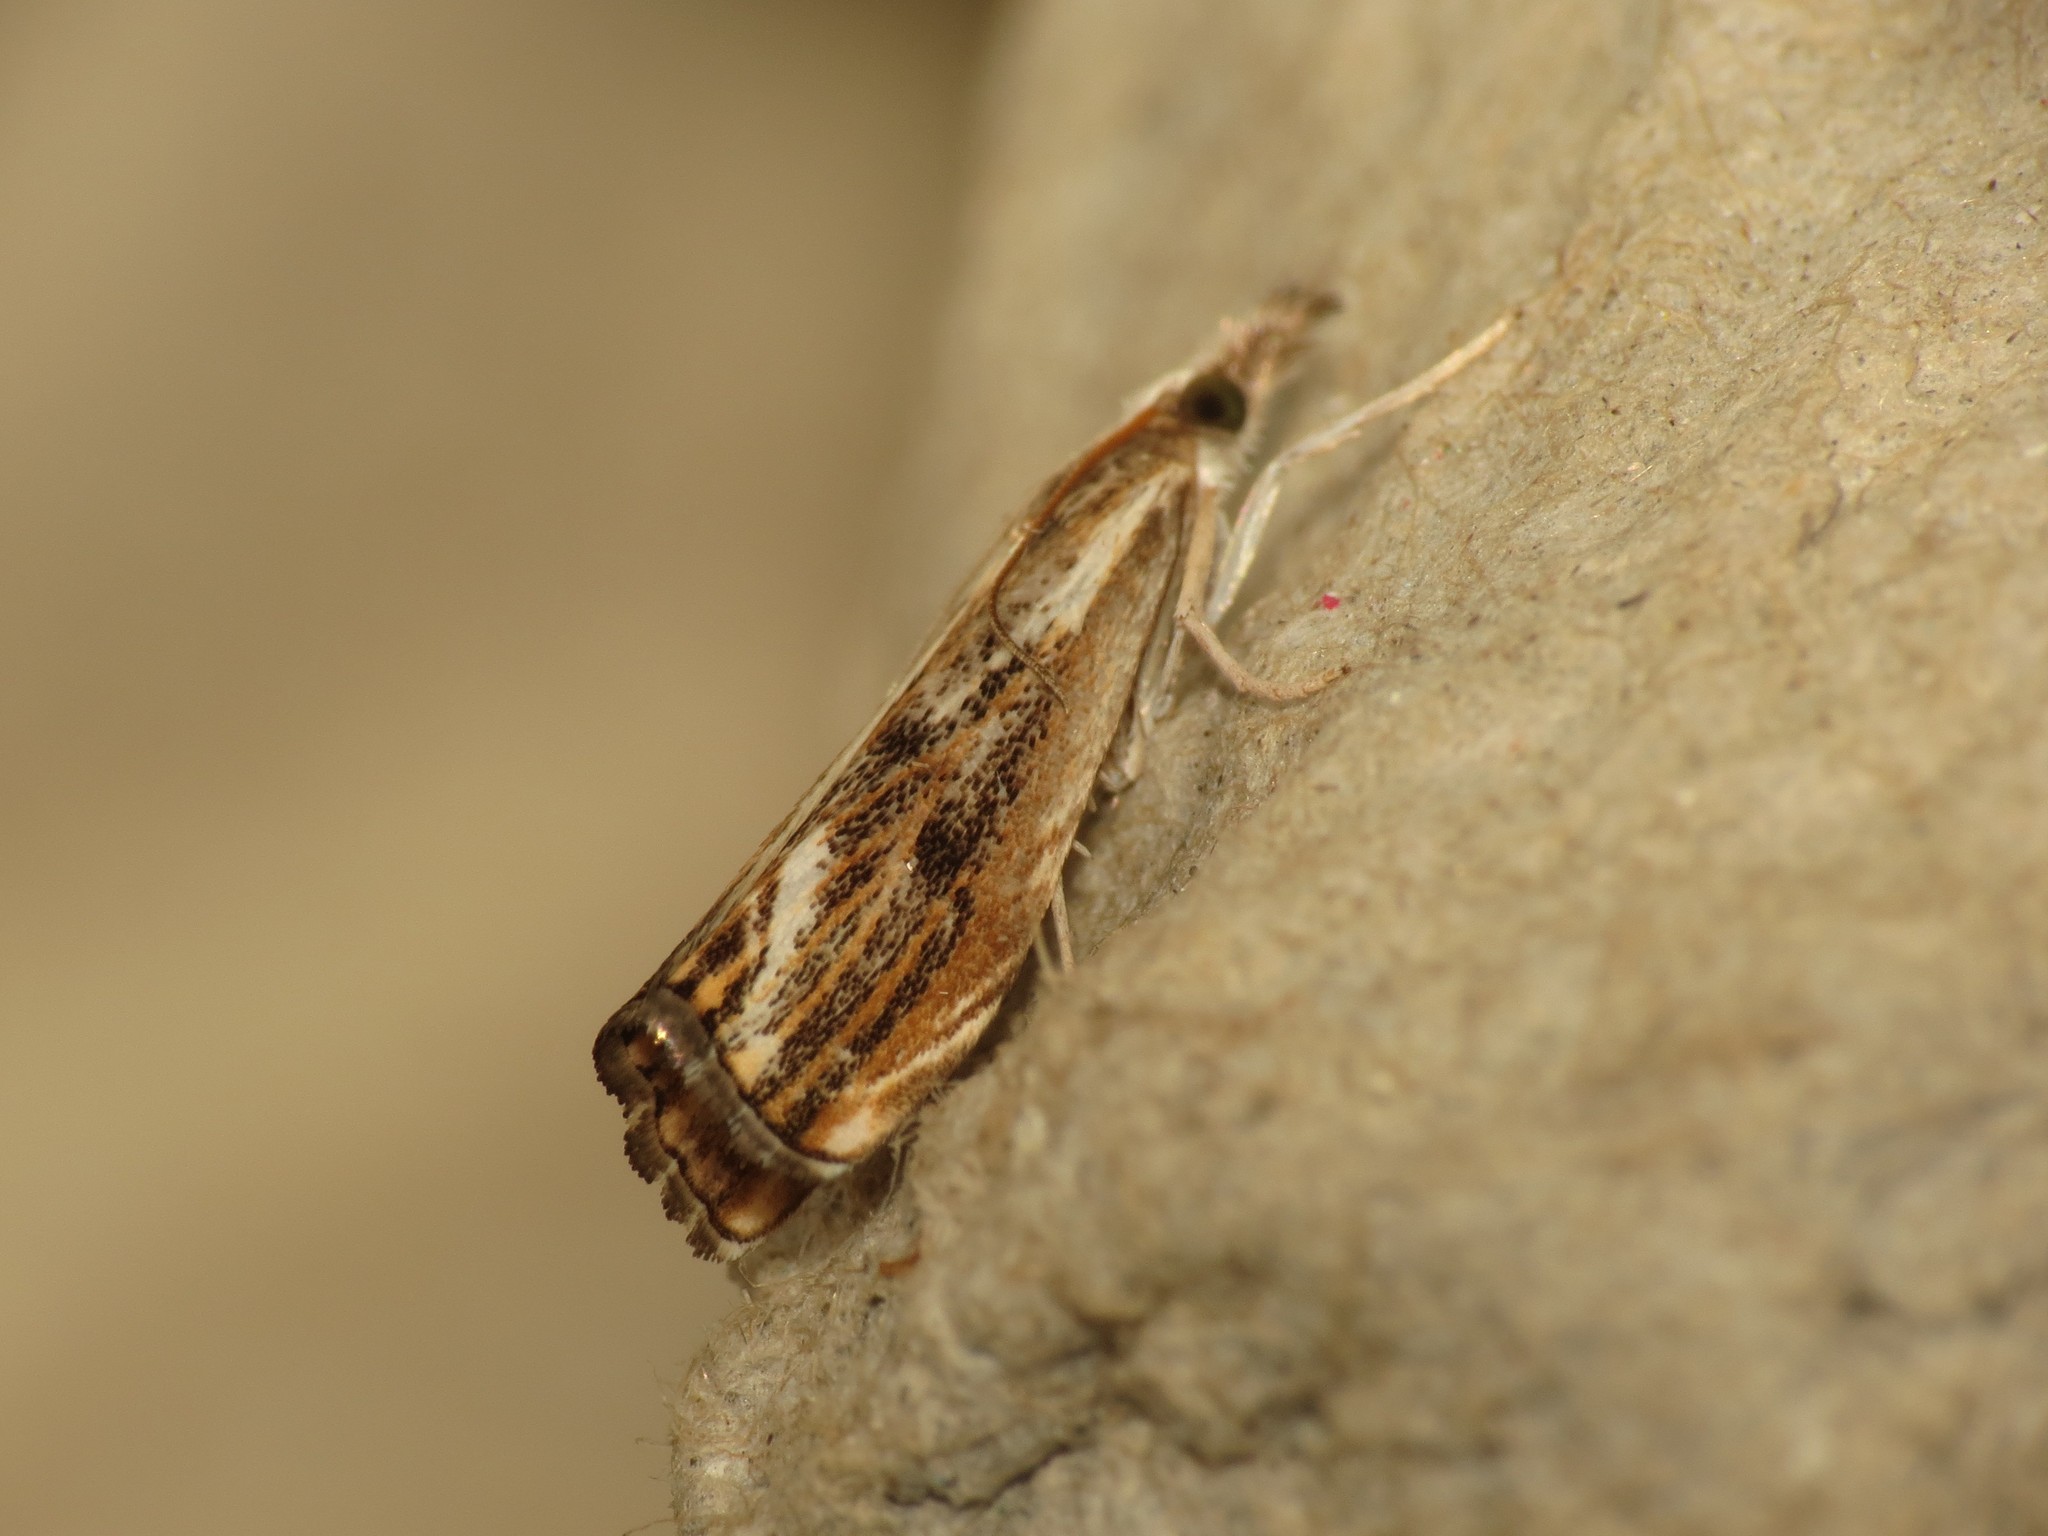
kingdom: Animalia
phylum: Arthropoda
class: Insecta
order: Lepidoptera
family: Crambidae
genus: Catoptria
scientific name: Catoptria verellus
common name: Marbled grass-veneer
